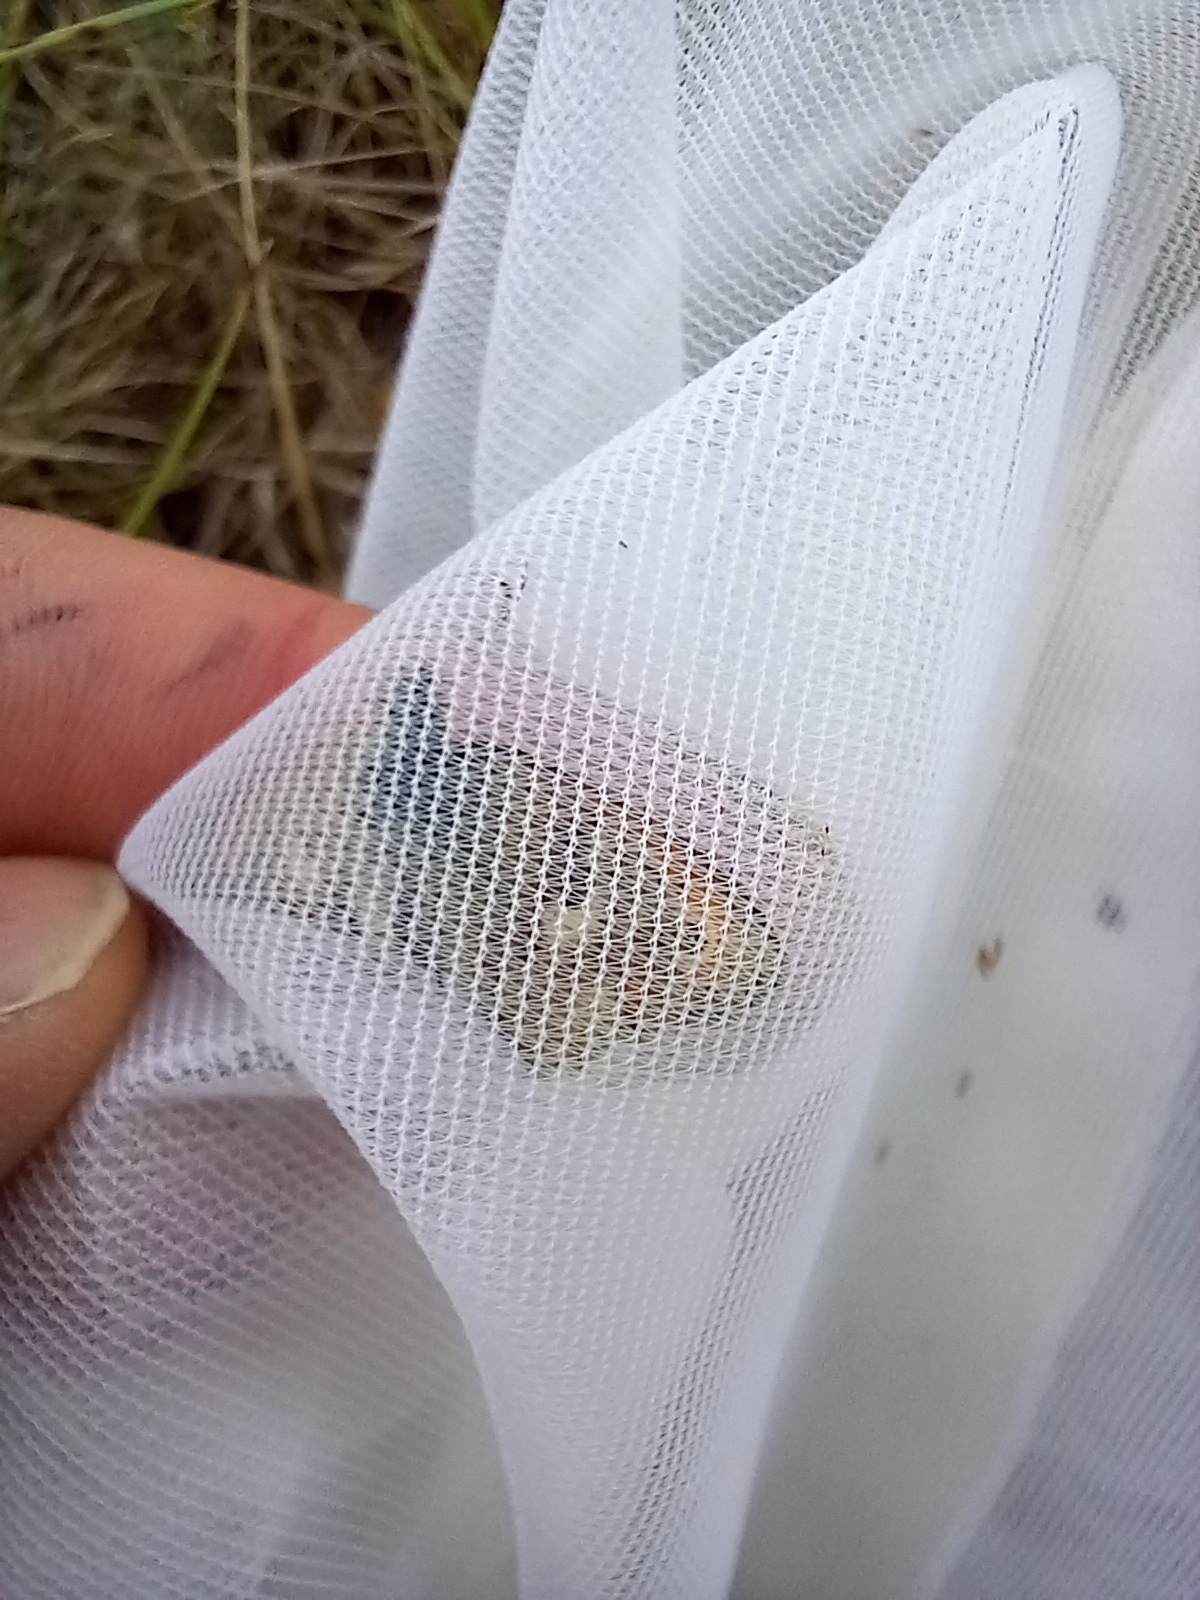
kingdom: Animalia
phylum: Arthropoda
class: Insecta
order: Lepidoptera
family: Nymphalidae
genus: Coenonympha
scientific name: Coenonympha pamphilus
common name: Small heath
